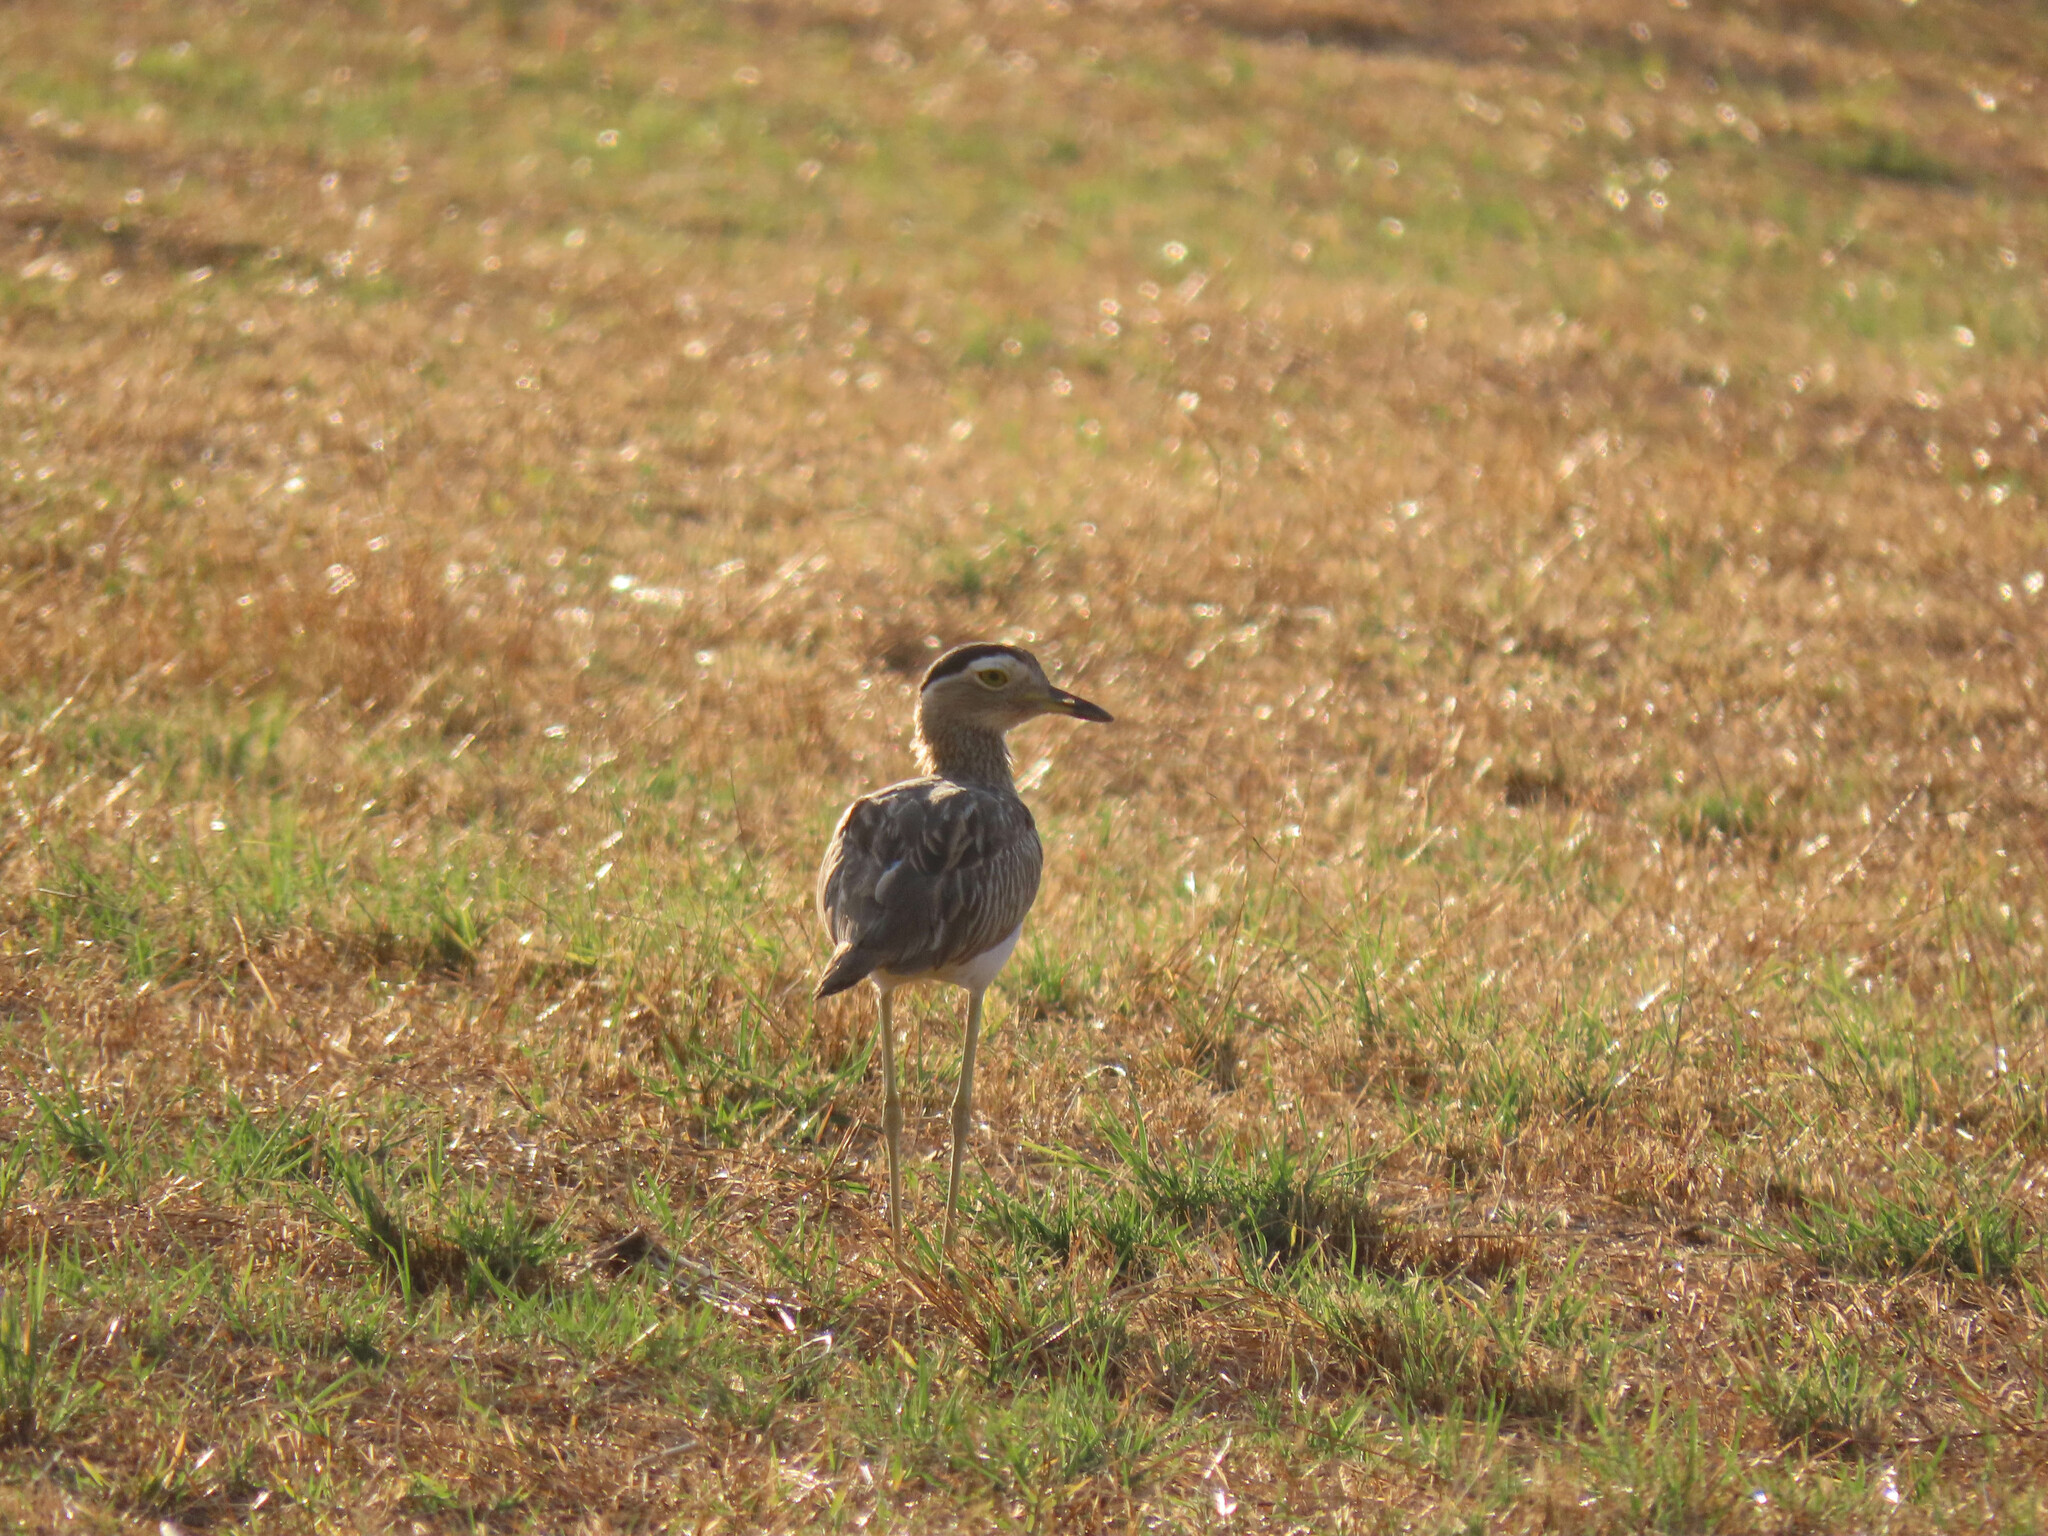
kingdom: Animalia
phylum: Chordata
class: Aves
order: Charadriiformes
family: Burhinidae
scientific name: Burhinidae
